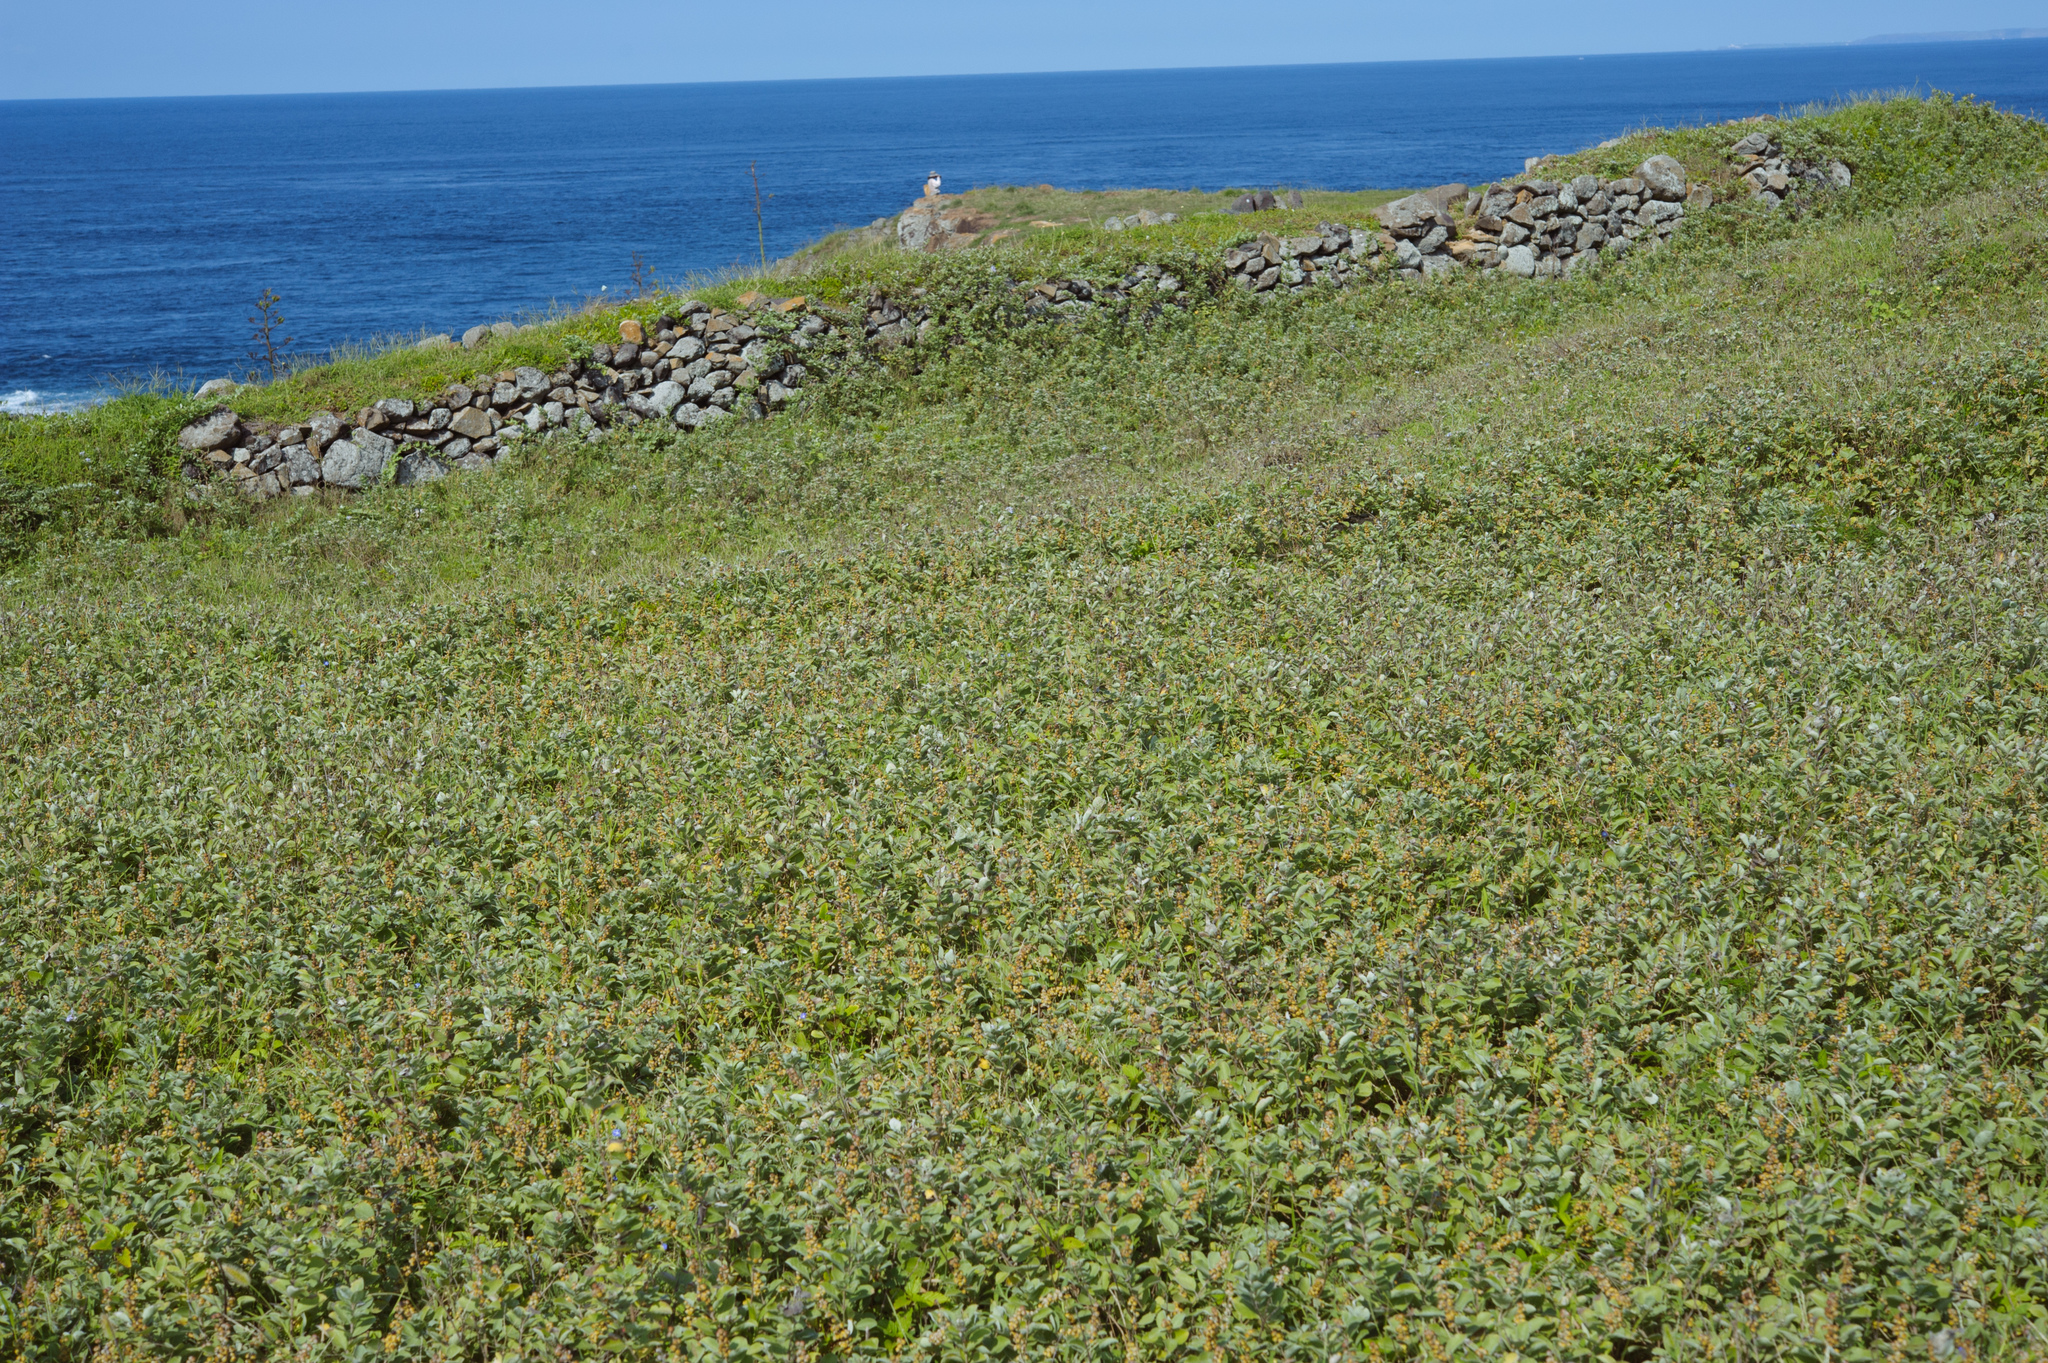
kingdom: Plantae
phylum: Tracheophyta
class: Magnoliopsida
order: Lamiales
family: Lamiaceae
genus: Vitex
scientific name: Vitex rotundifolia
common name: Beach vitex
